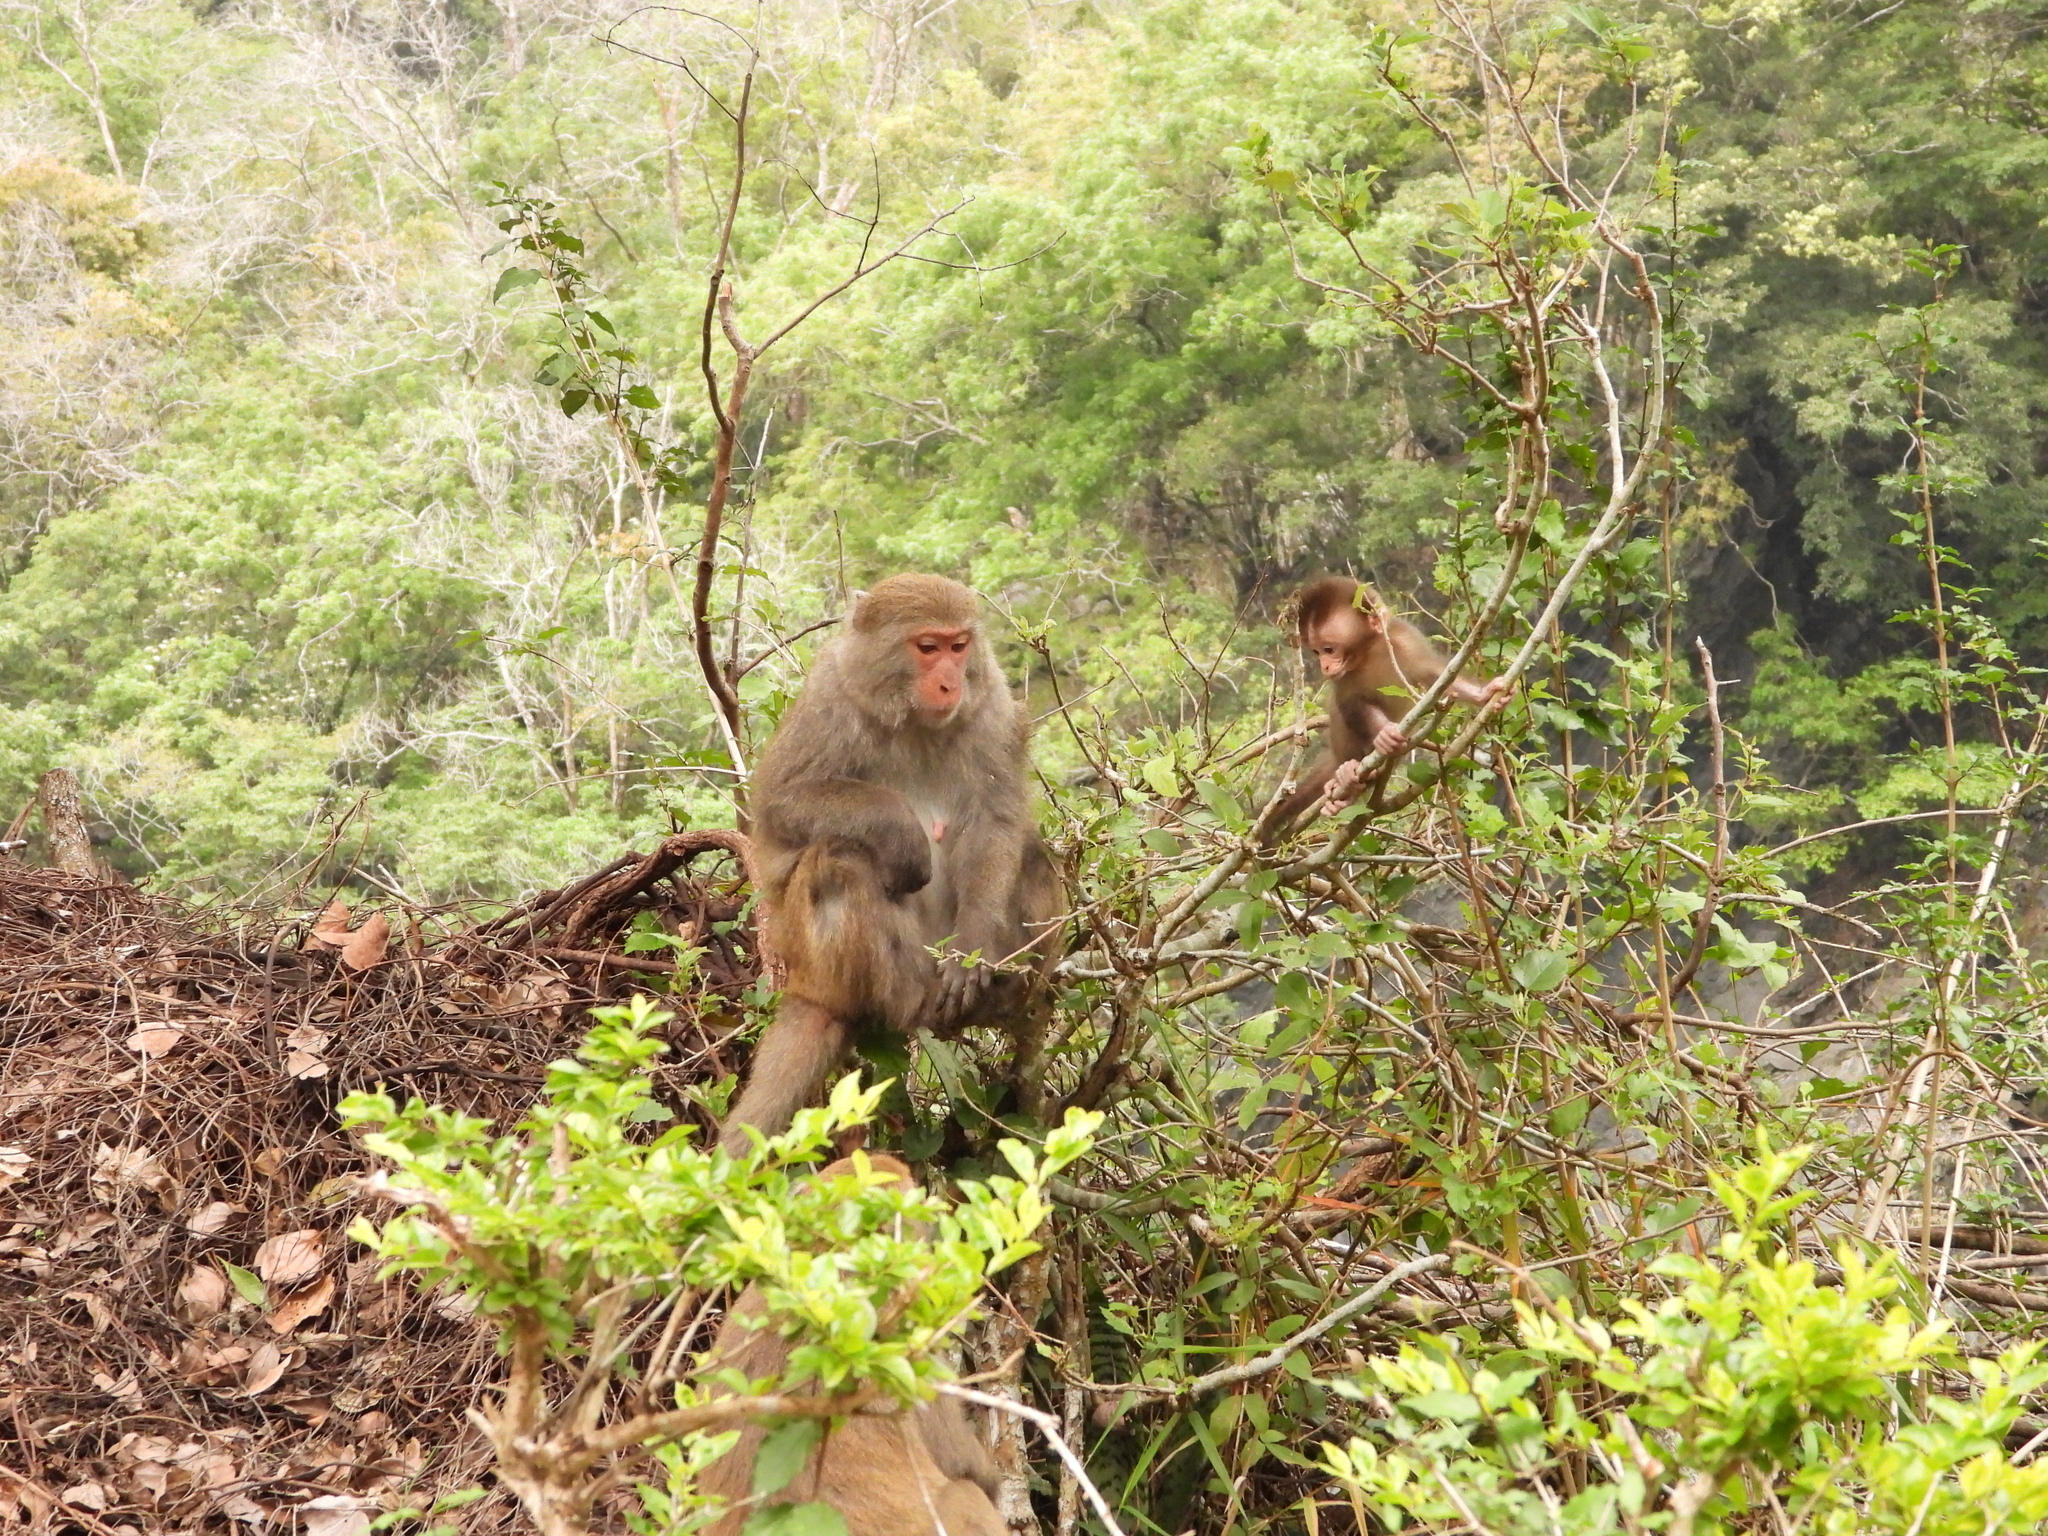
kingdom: Animalia
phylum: Chordata
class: Mammalia
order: Primates
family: Cercopithecidae
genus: Macaca
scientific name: Macaca cyclopis
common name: Formosan rock macaque
